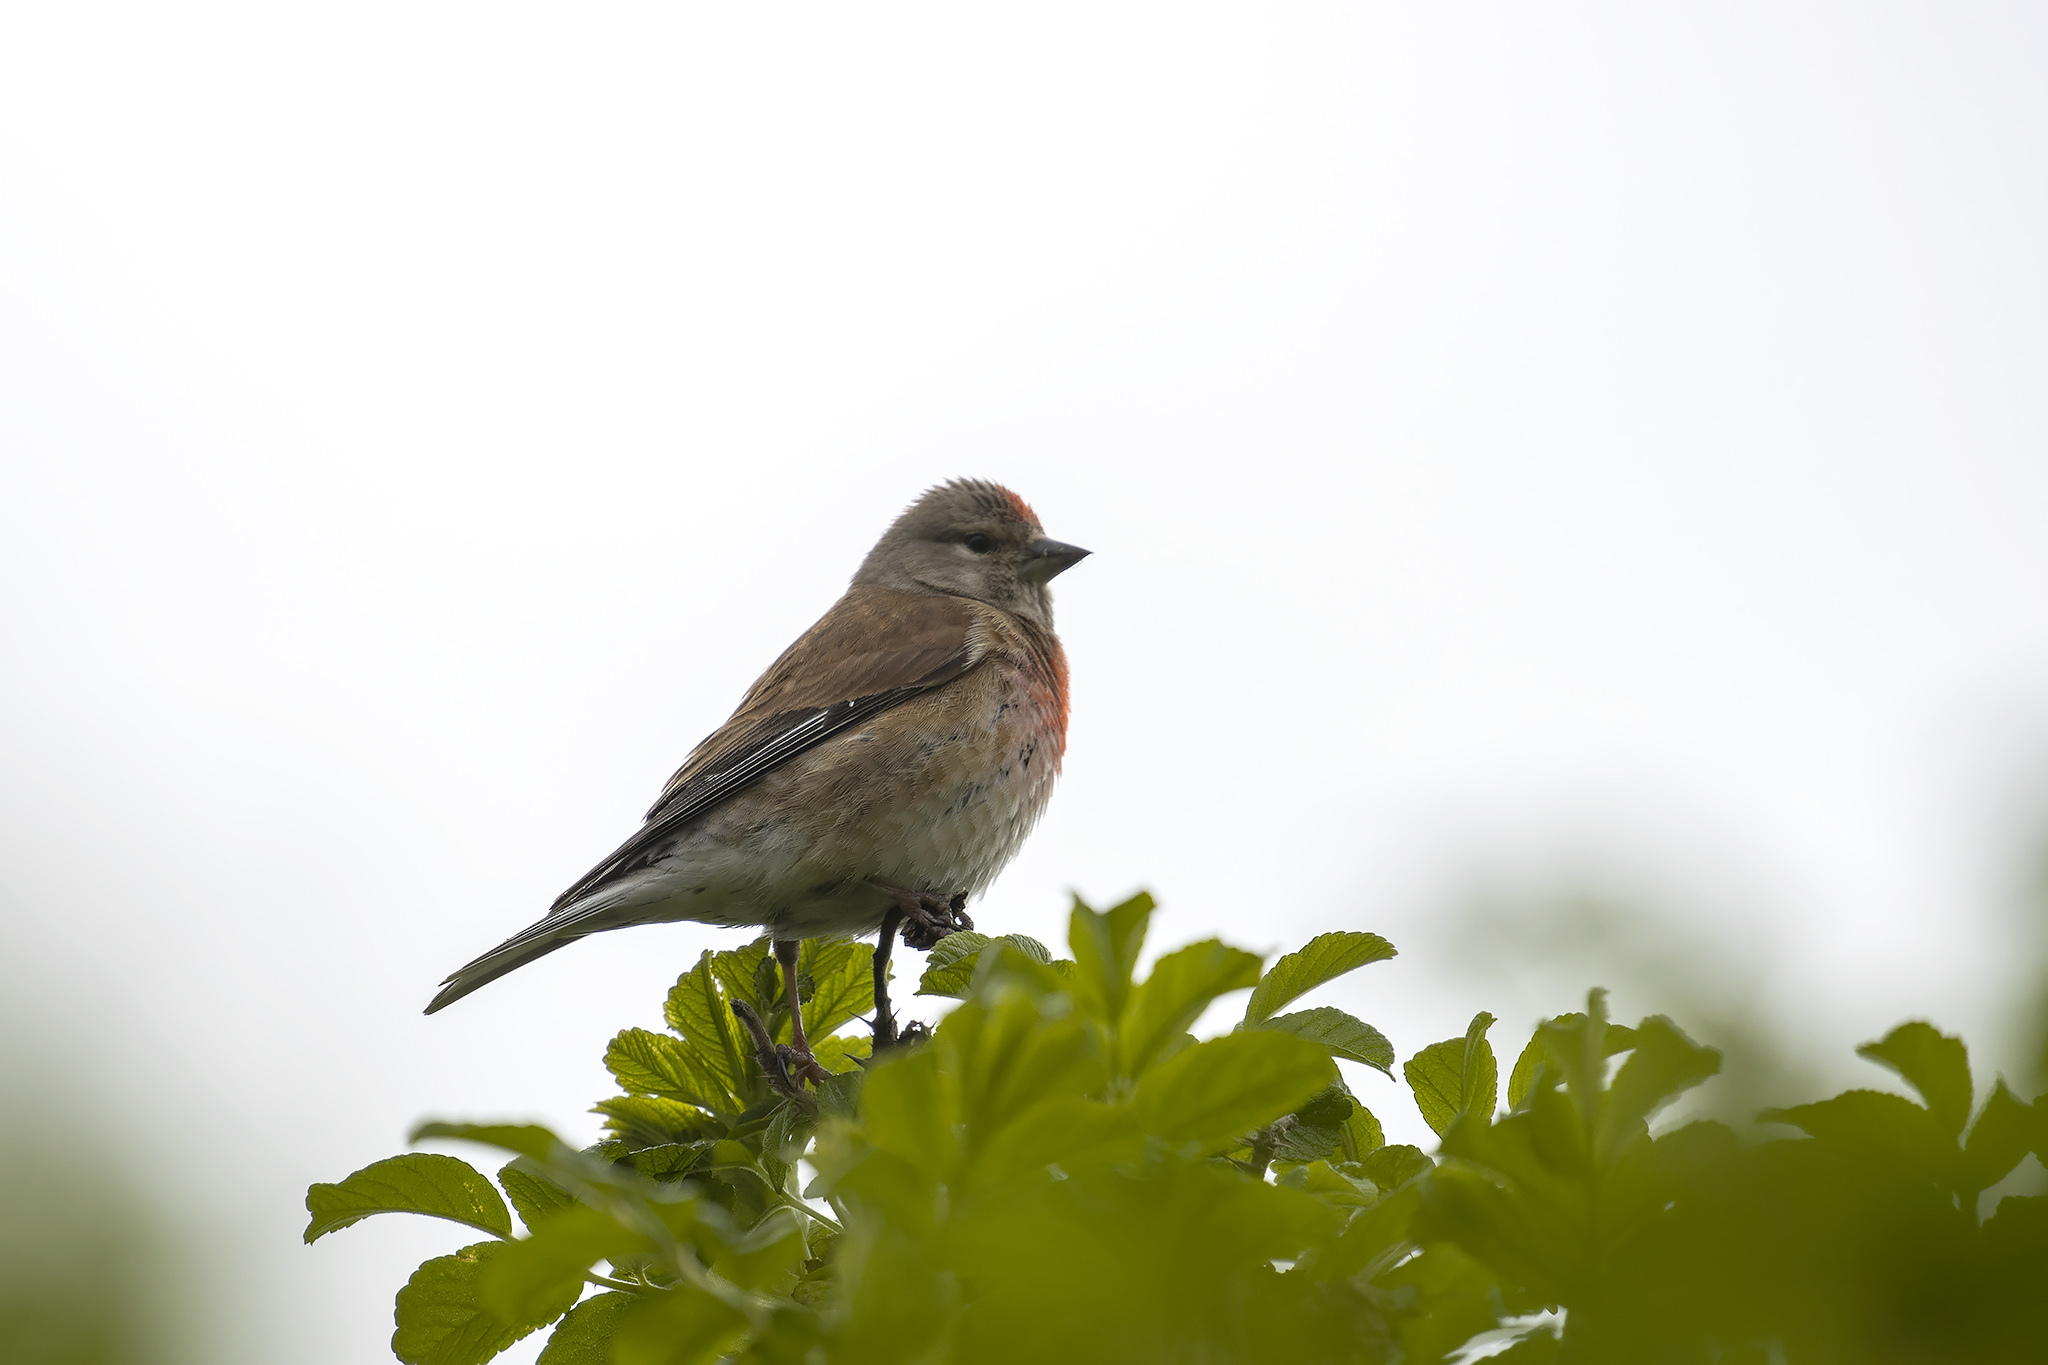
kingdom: Animalia
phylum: Chordata
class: Aves
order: Passeriformes
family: Fringillidae
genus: Linaria
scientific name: Linaria cannabina
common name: Common linnet
